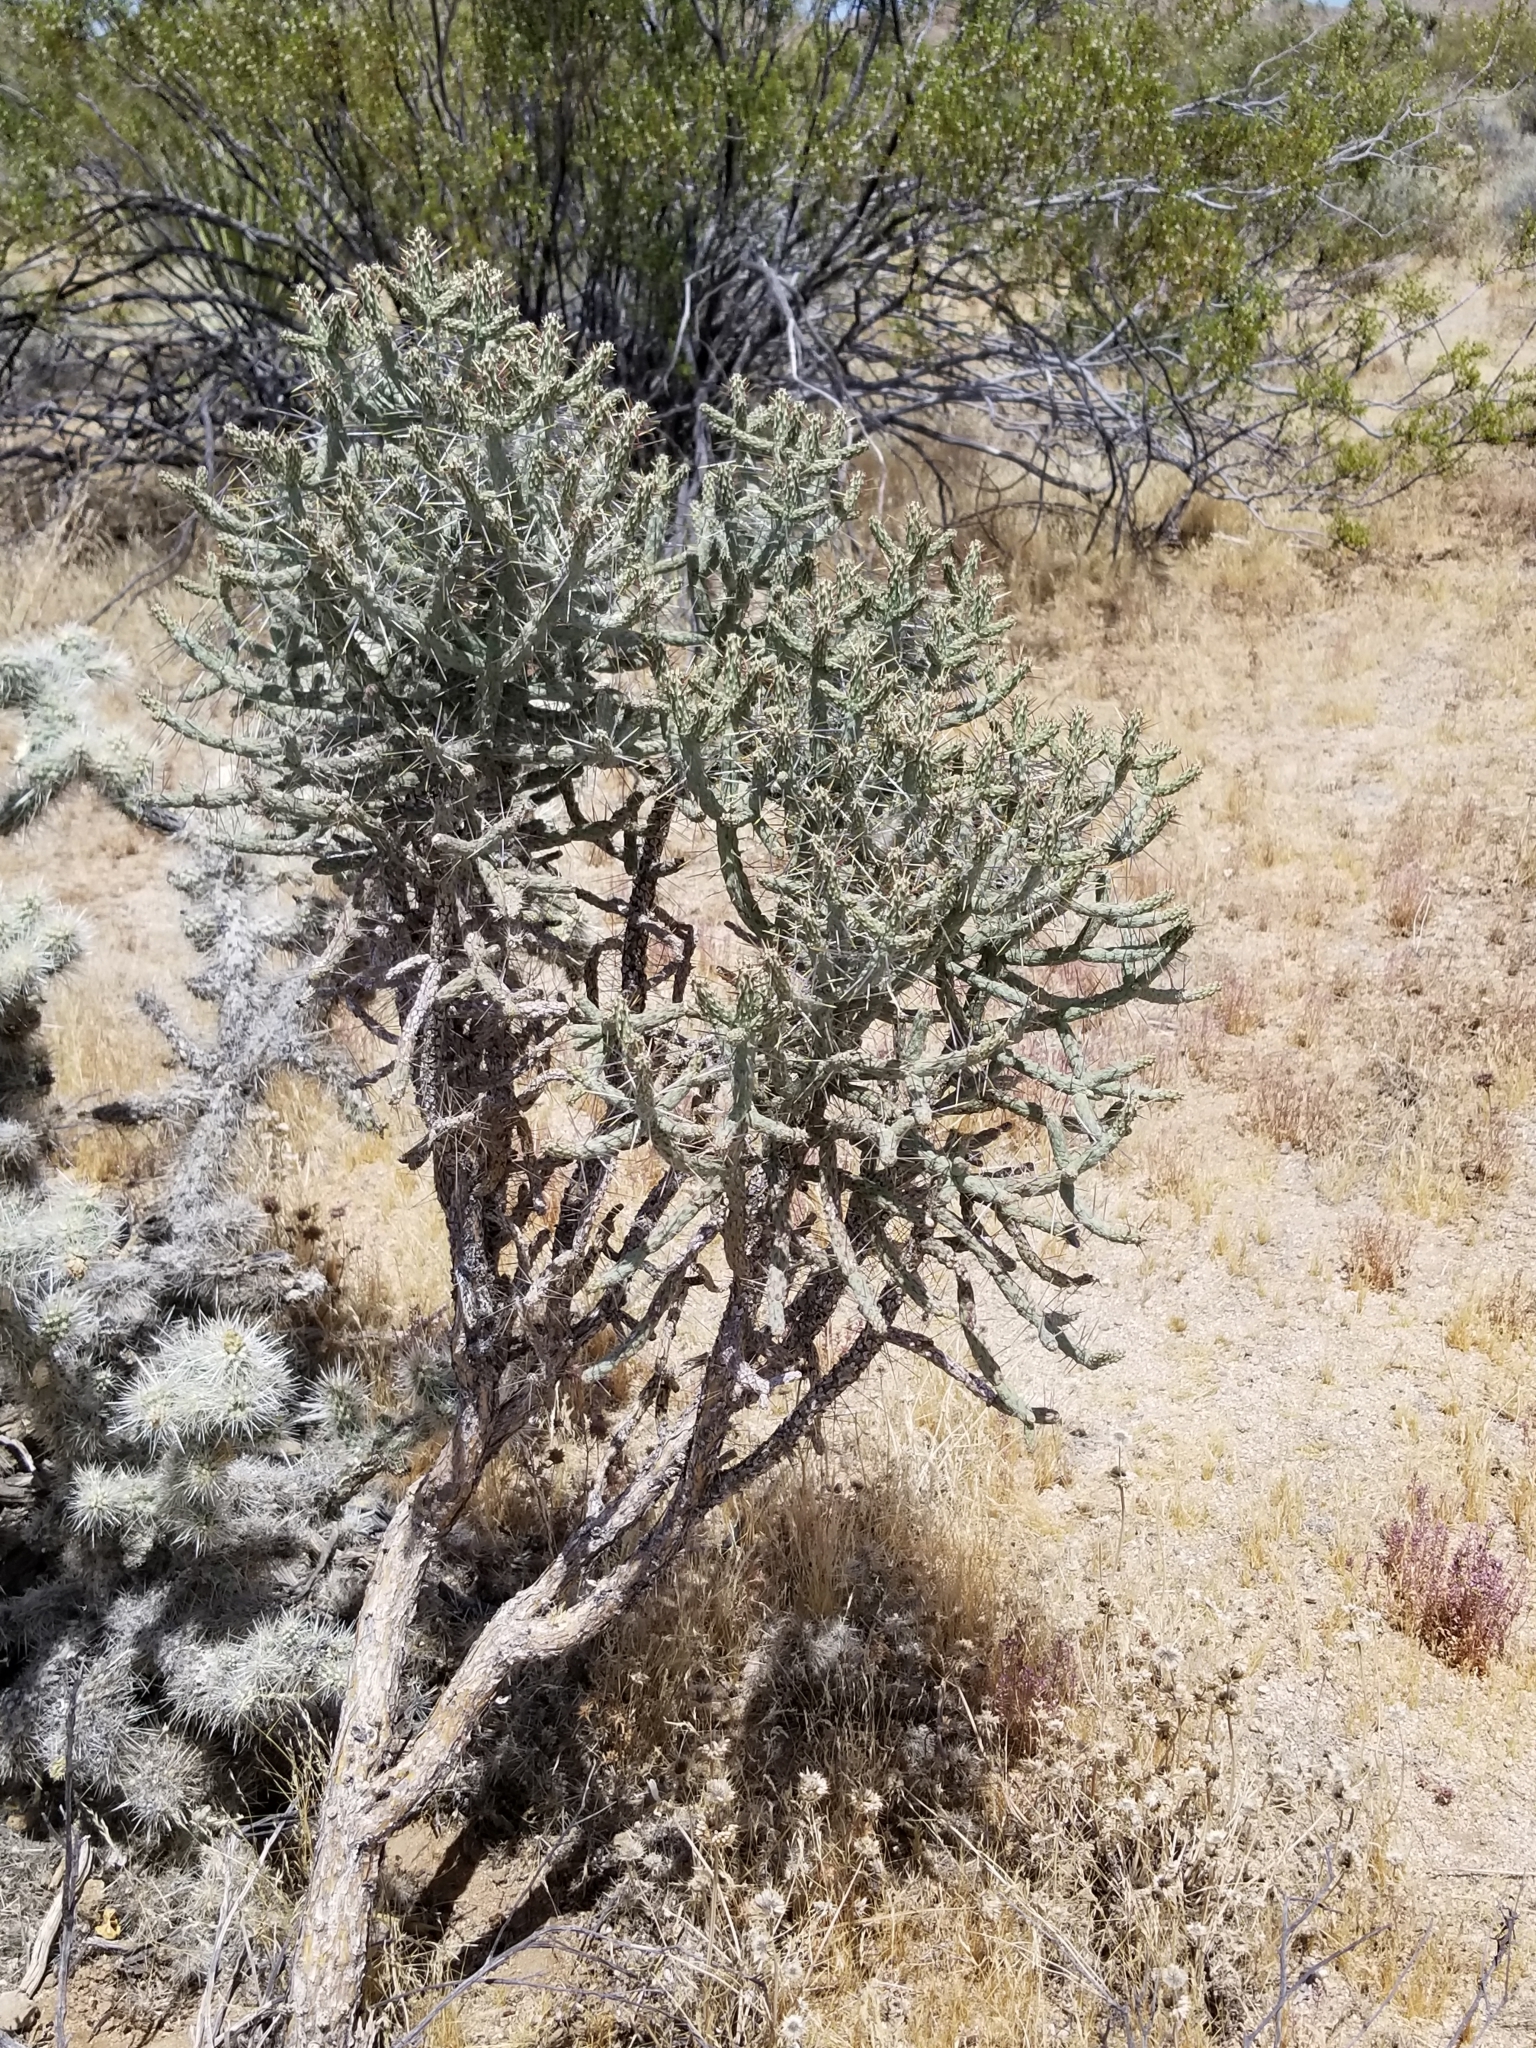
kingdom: Plantae
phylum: Tracheophyta
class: Magnoliopsida
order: Caryophyllales
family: Cactaceae
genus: Cylindropuntia
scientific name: Cylindropuntia ramosissima
